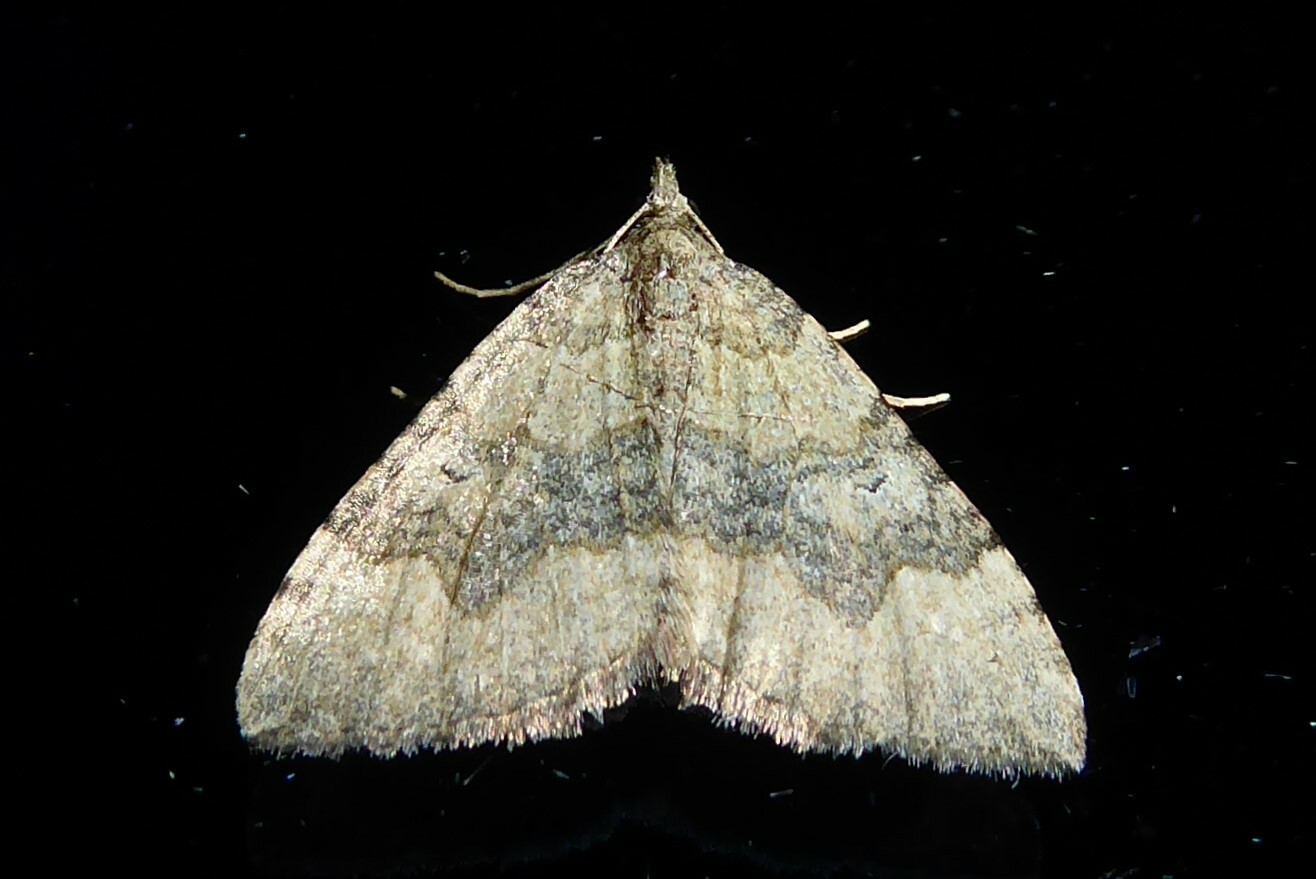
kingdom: Animalia
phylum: Arthropoda
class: Insecta
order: Lepidoptera
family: Geometridae
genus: Epyaxa
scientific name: Epyaxa rosearia
